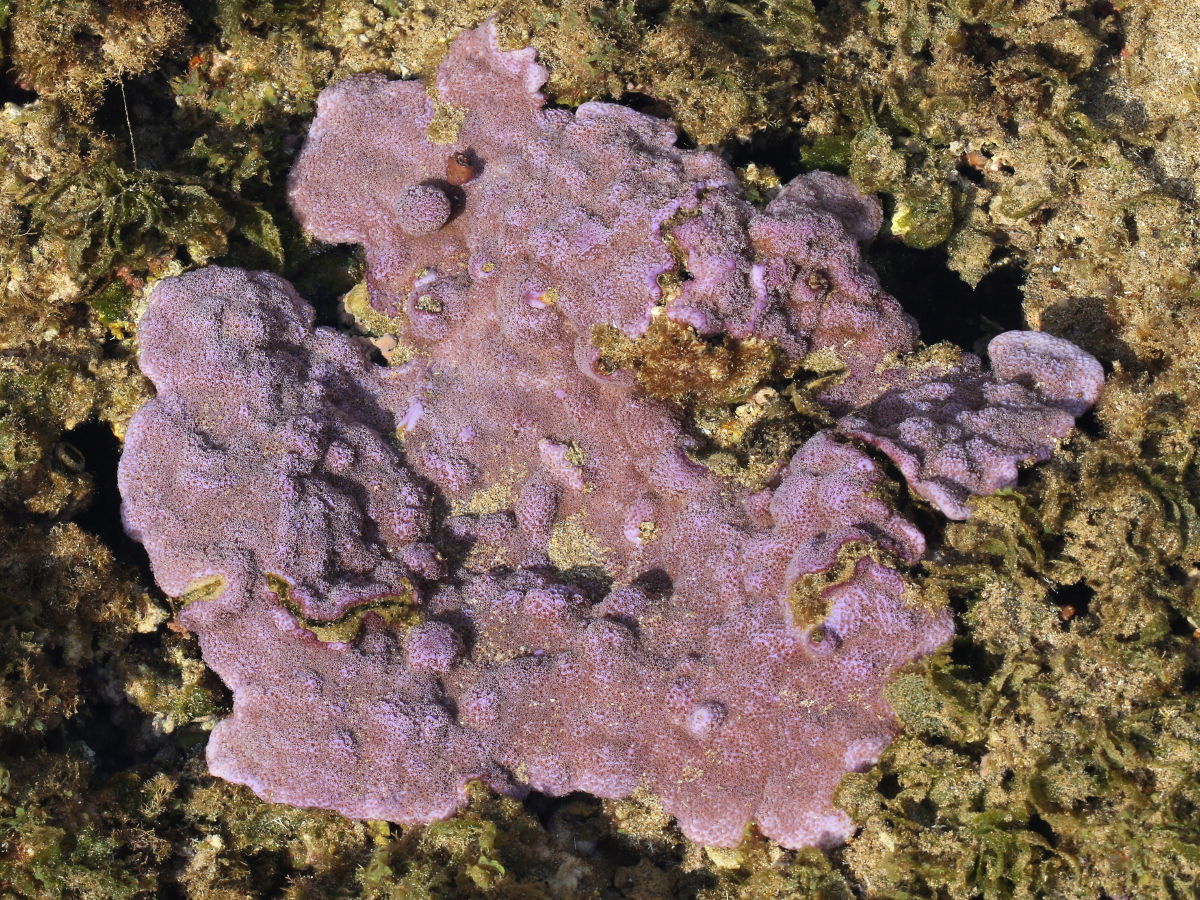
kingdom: Animalia
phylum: Cnidaria
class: Anthozoa
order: Scleractinia
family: Acroporidae
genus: Montipora
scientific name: Montipora flabellata
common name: Pore coral
